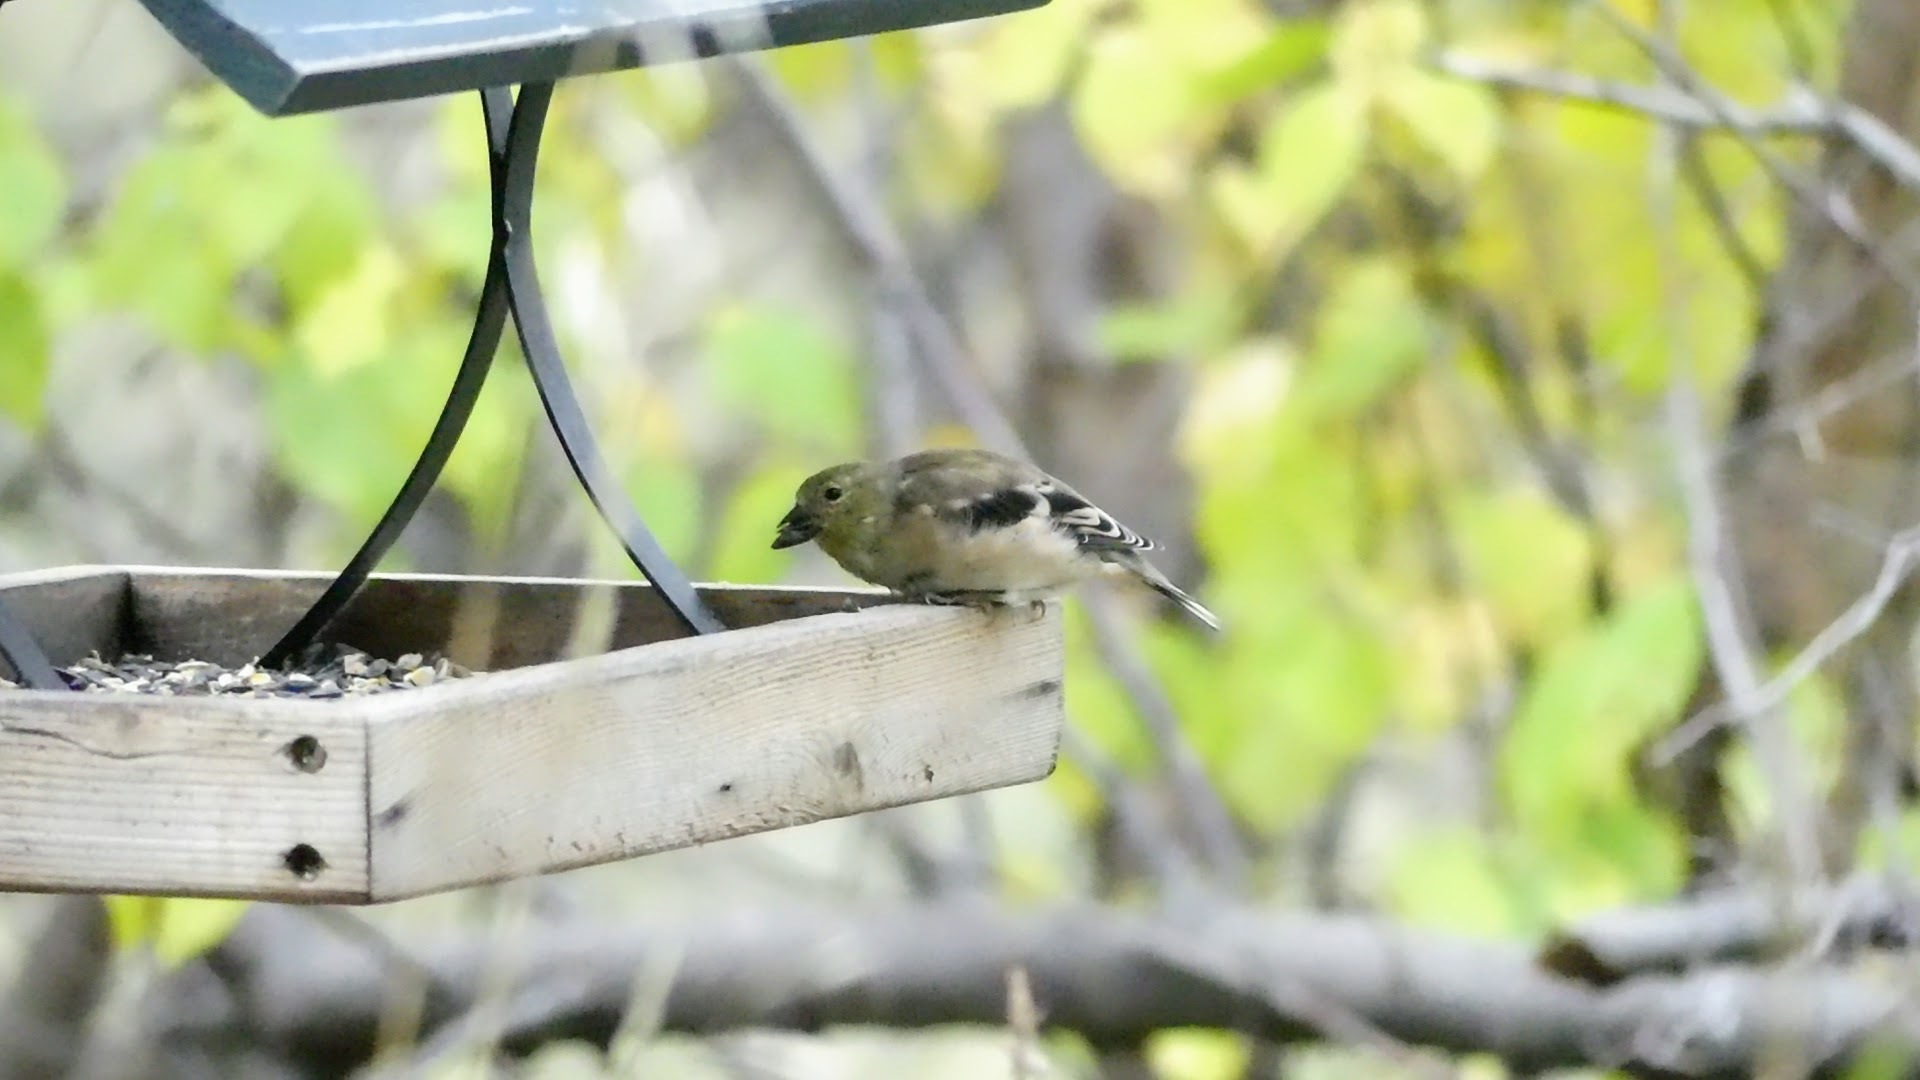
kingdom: Animalia
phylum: Chordata
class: Aves
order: Passeriformes
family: Fringillidae
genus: Spinus
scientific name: Spinus tristis
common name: American goldfinch
